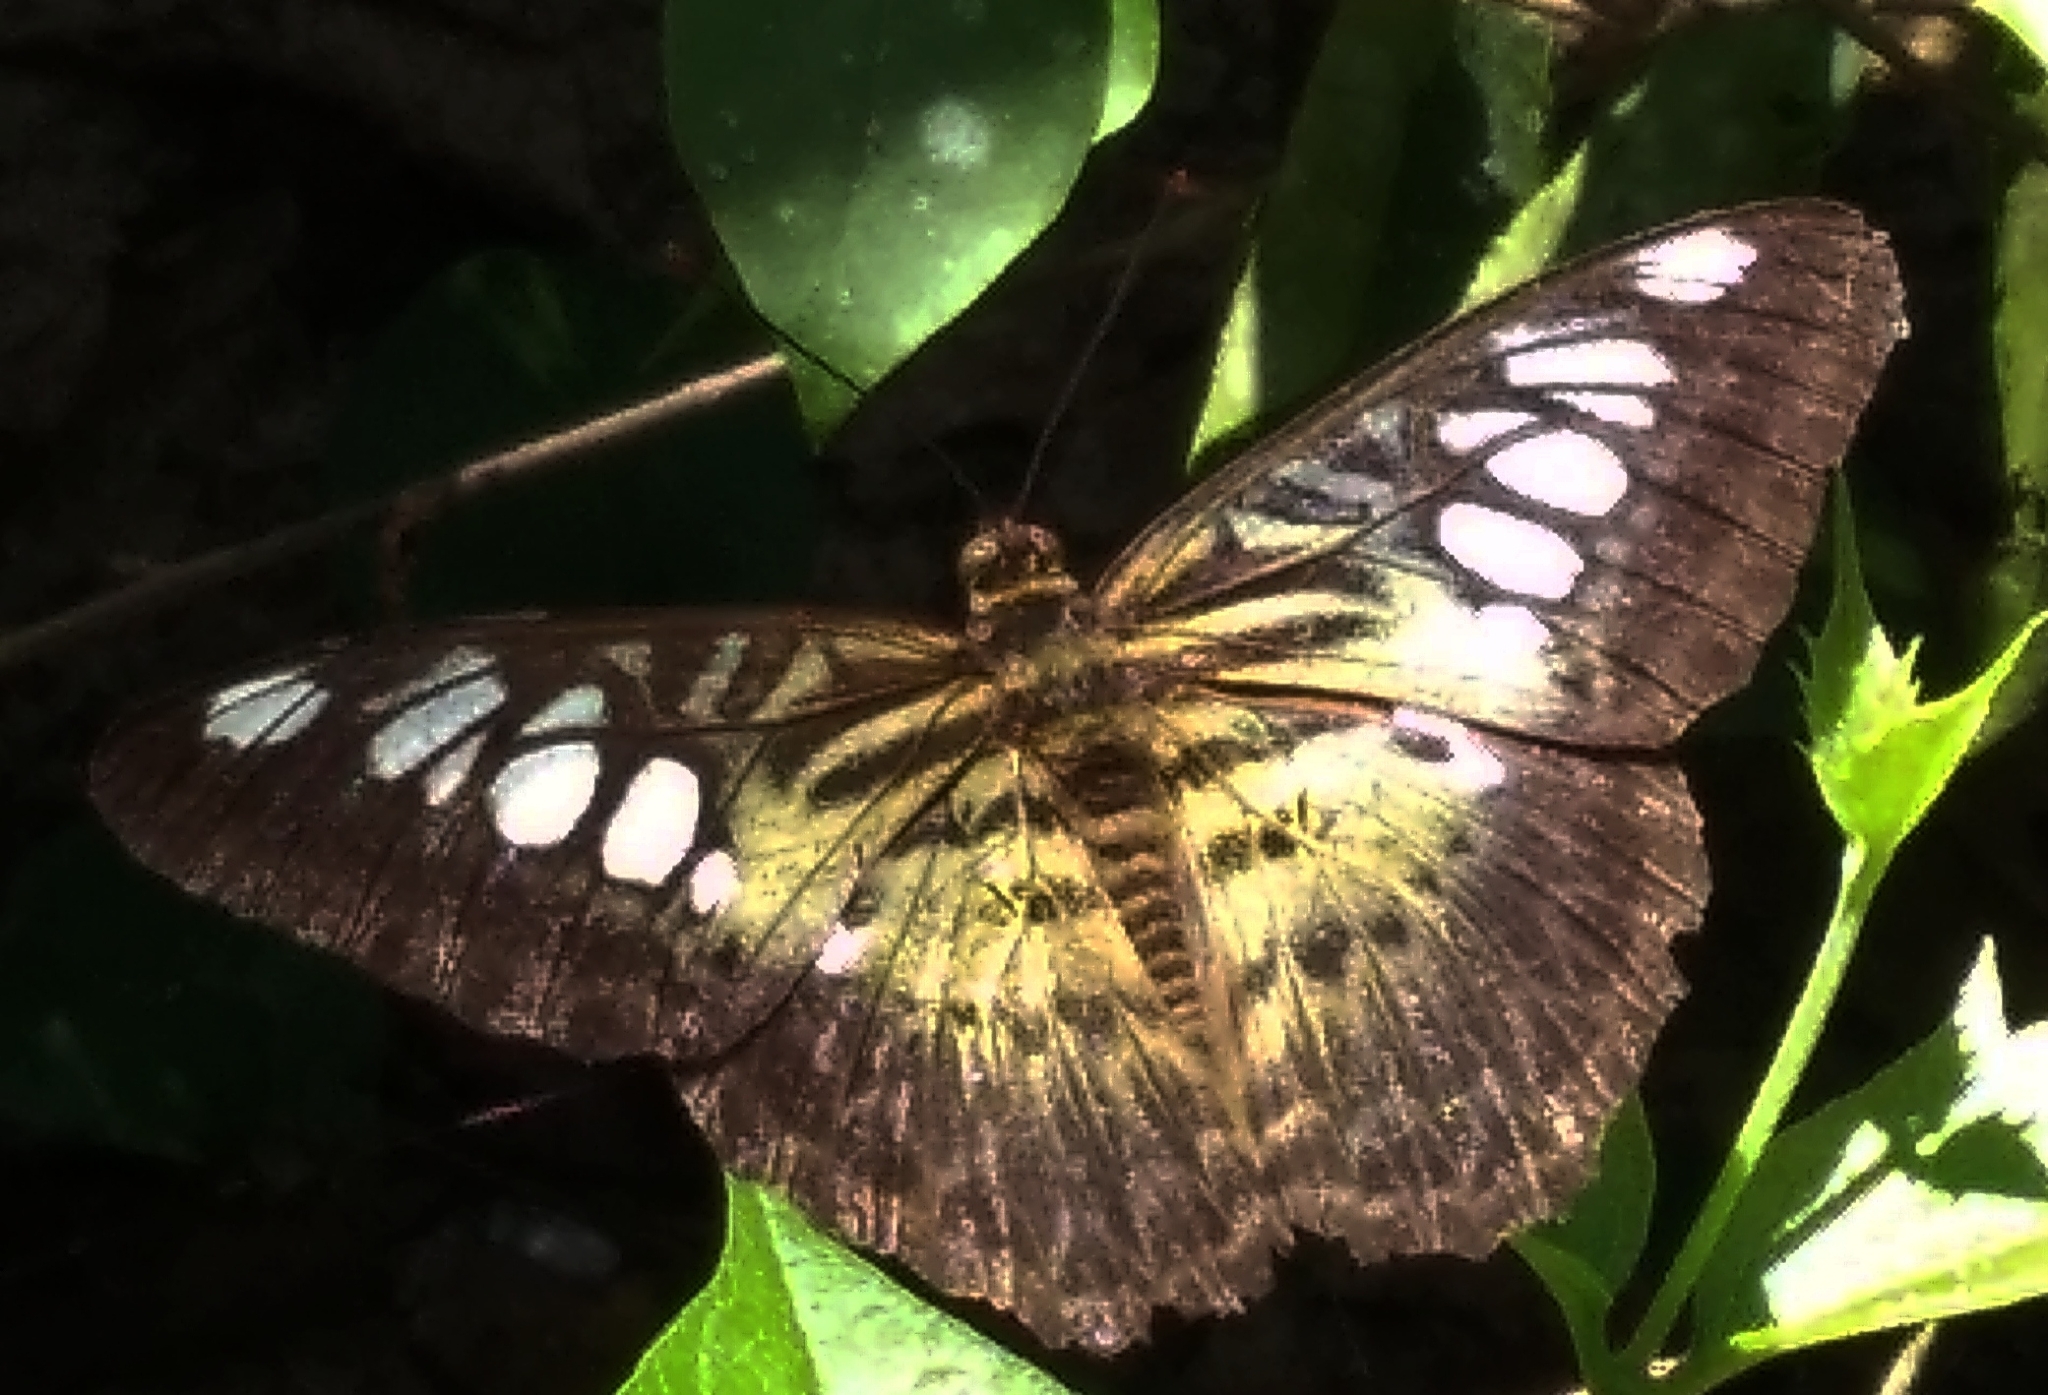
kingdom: Animalia
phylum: Arthropoda
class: Insecta
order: Lepidoptera
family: Nymphalidae
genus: Kallima
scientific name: Kallima sylvia
